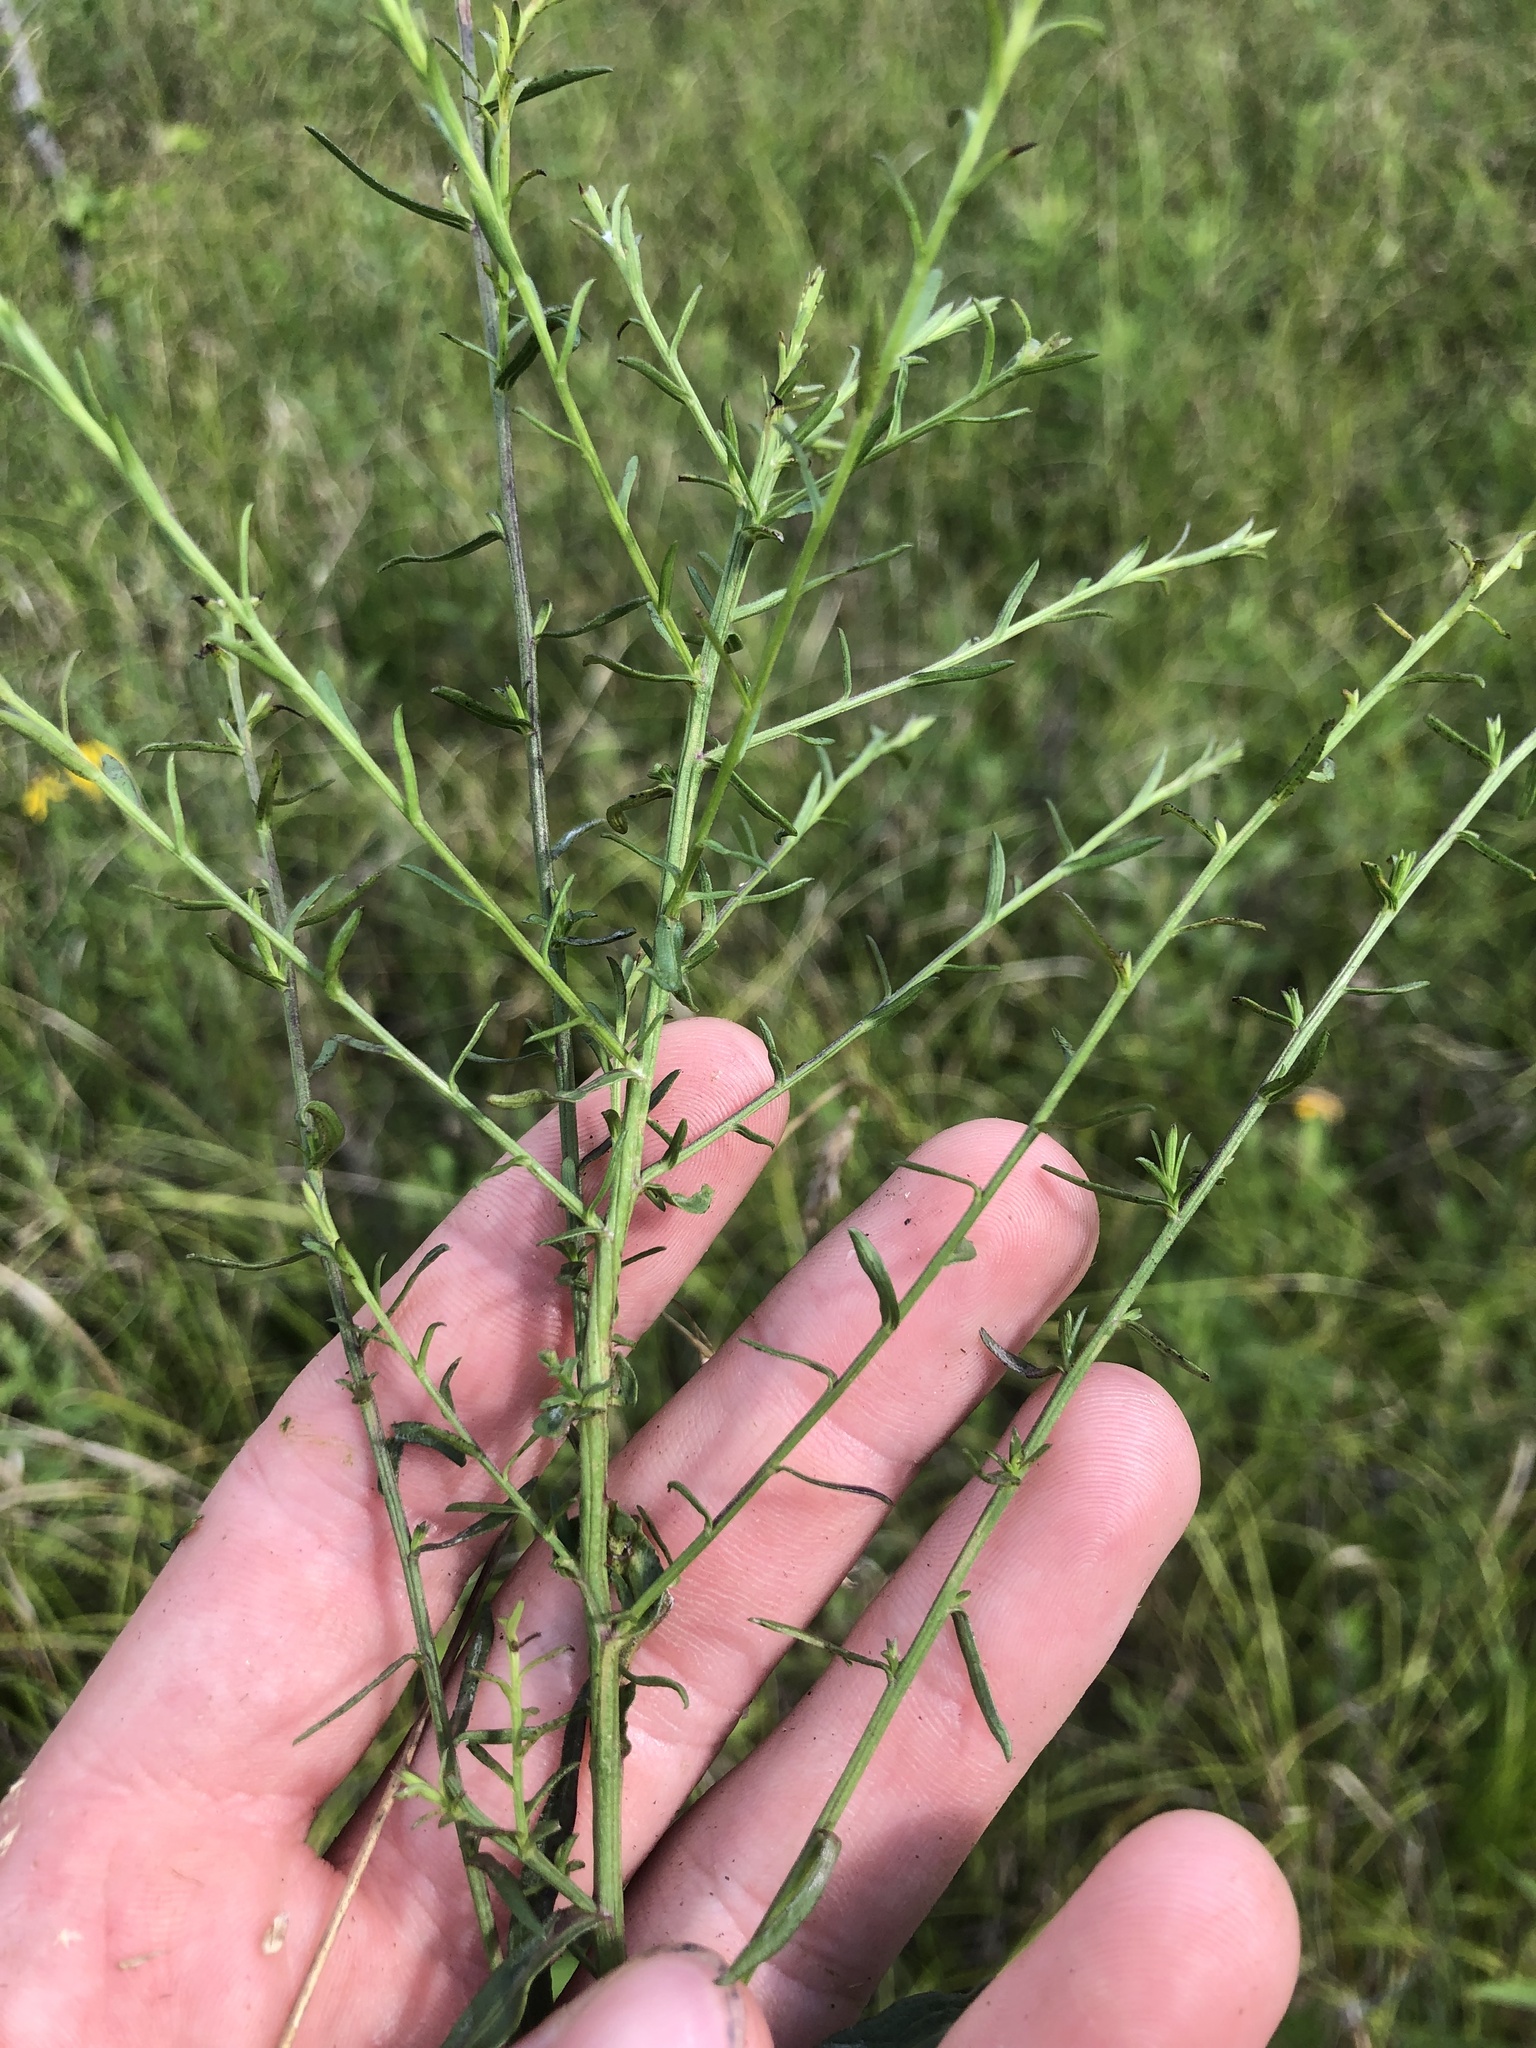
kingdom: Plantae
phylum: Tracheophyta
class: Magnoliopsida
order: Asterales
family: Asteraceae
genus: Symphyotrichum
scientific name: Symphyotrichum dumosum
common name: Bushy aster
